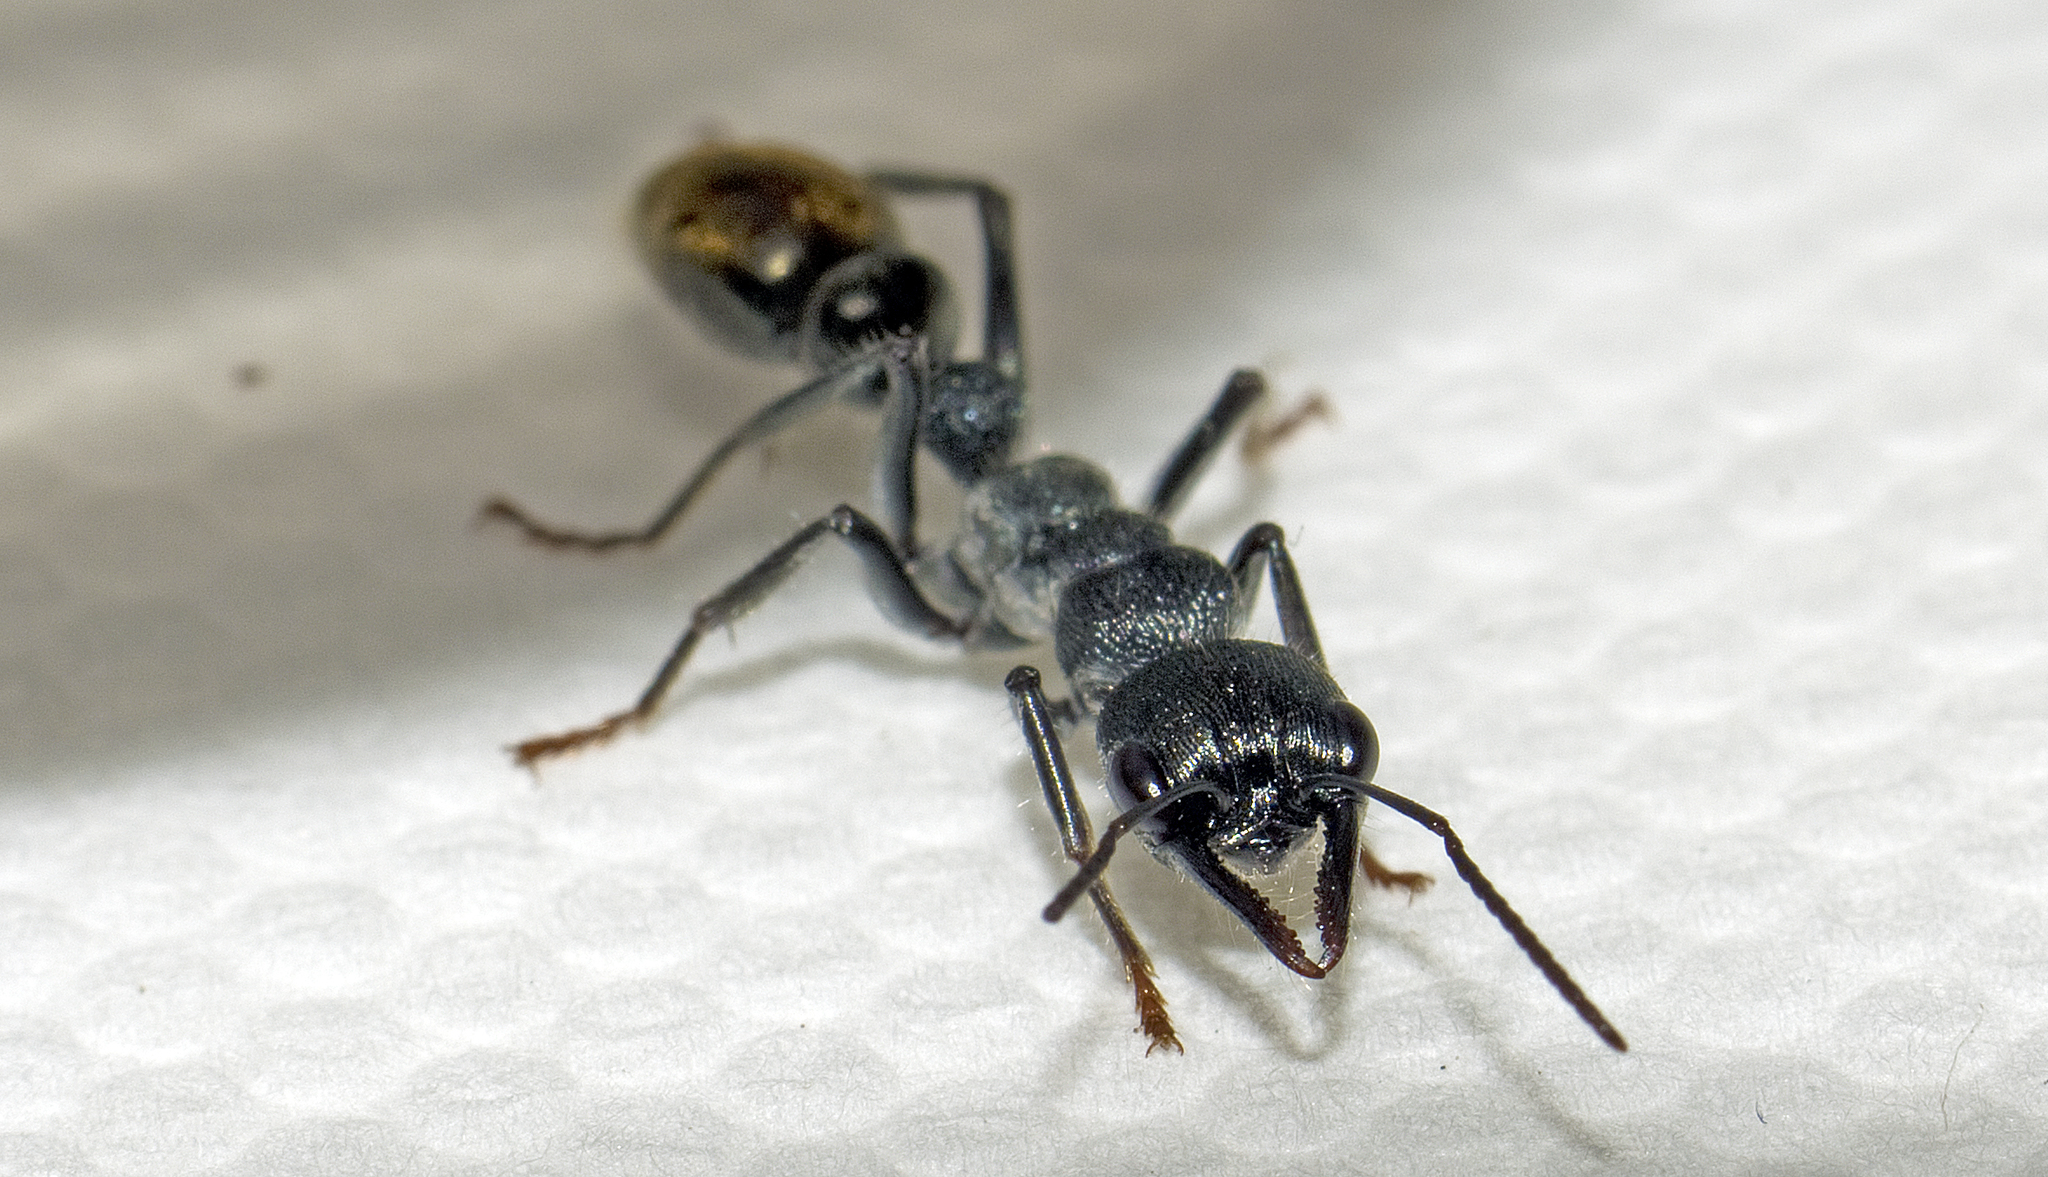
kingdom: Animalia
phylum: Arthropoda
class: Insecta
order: Hymenoptera
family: Formicidae
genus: Myrmecia
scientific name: Myrmecia gilberti
